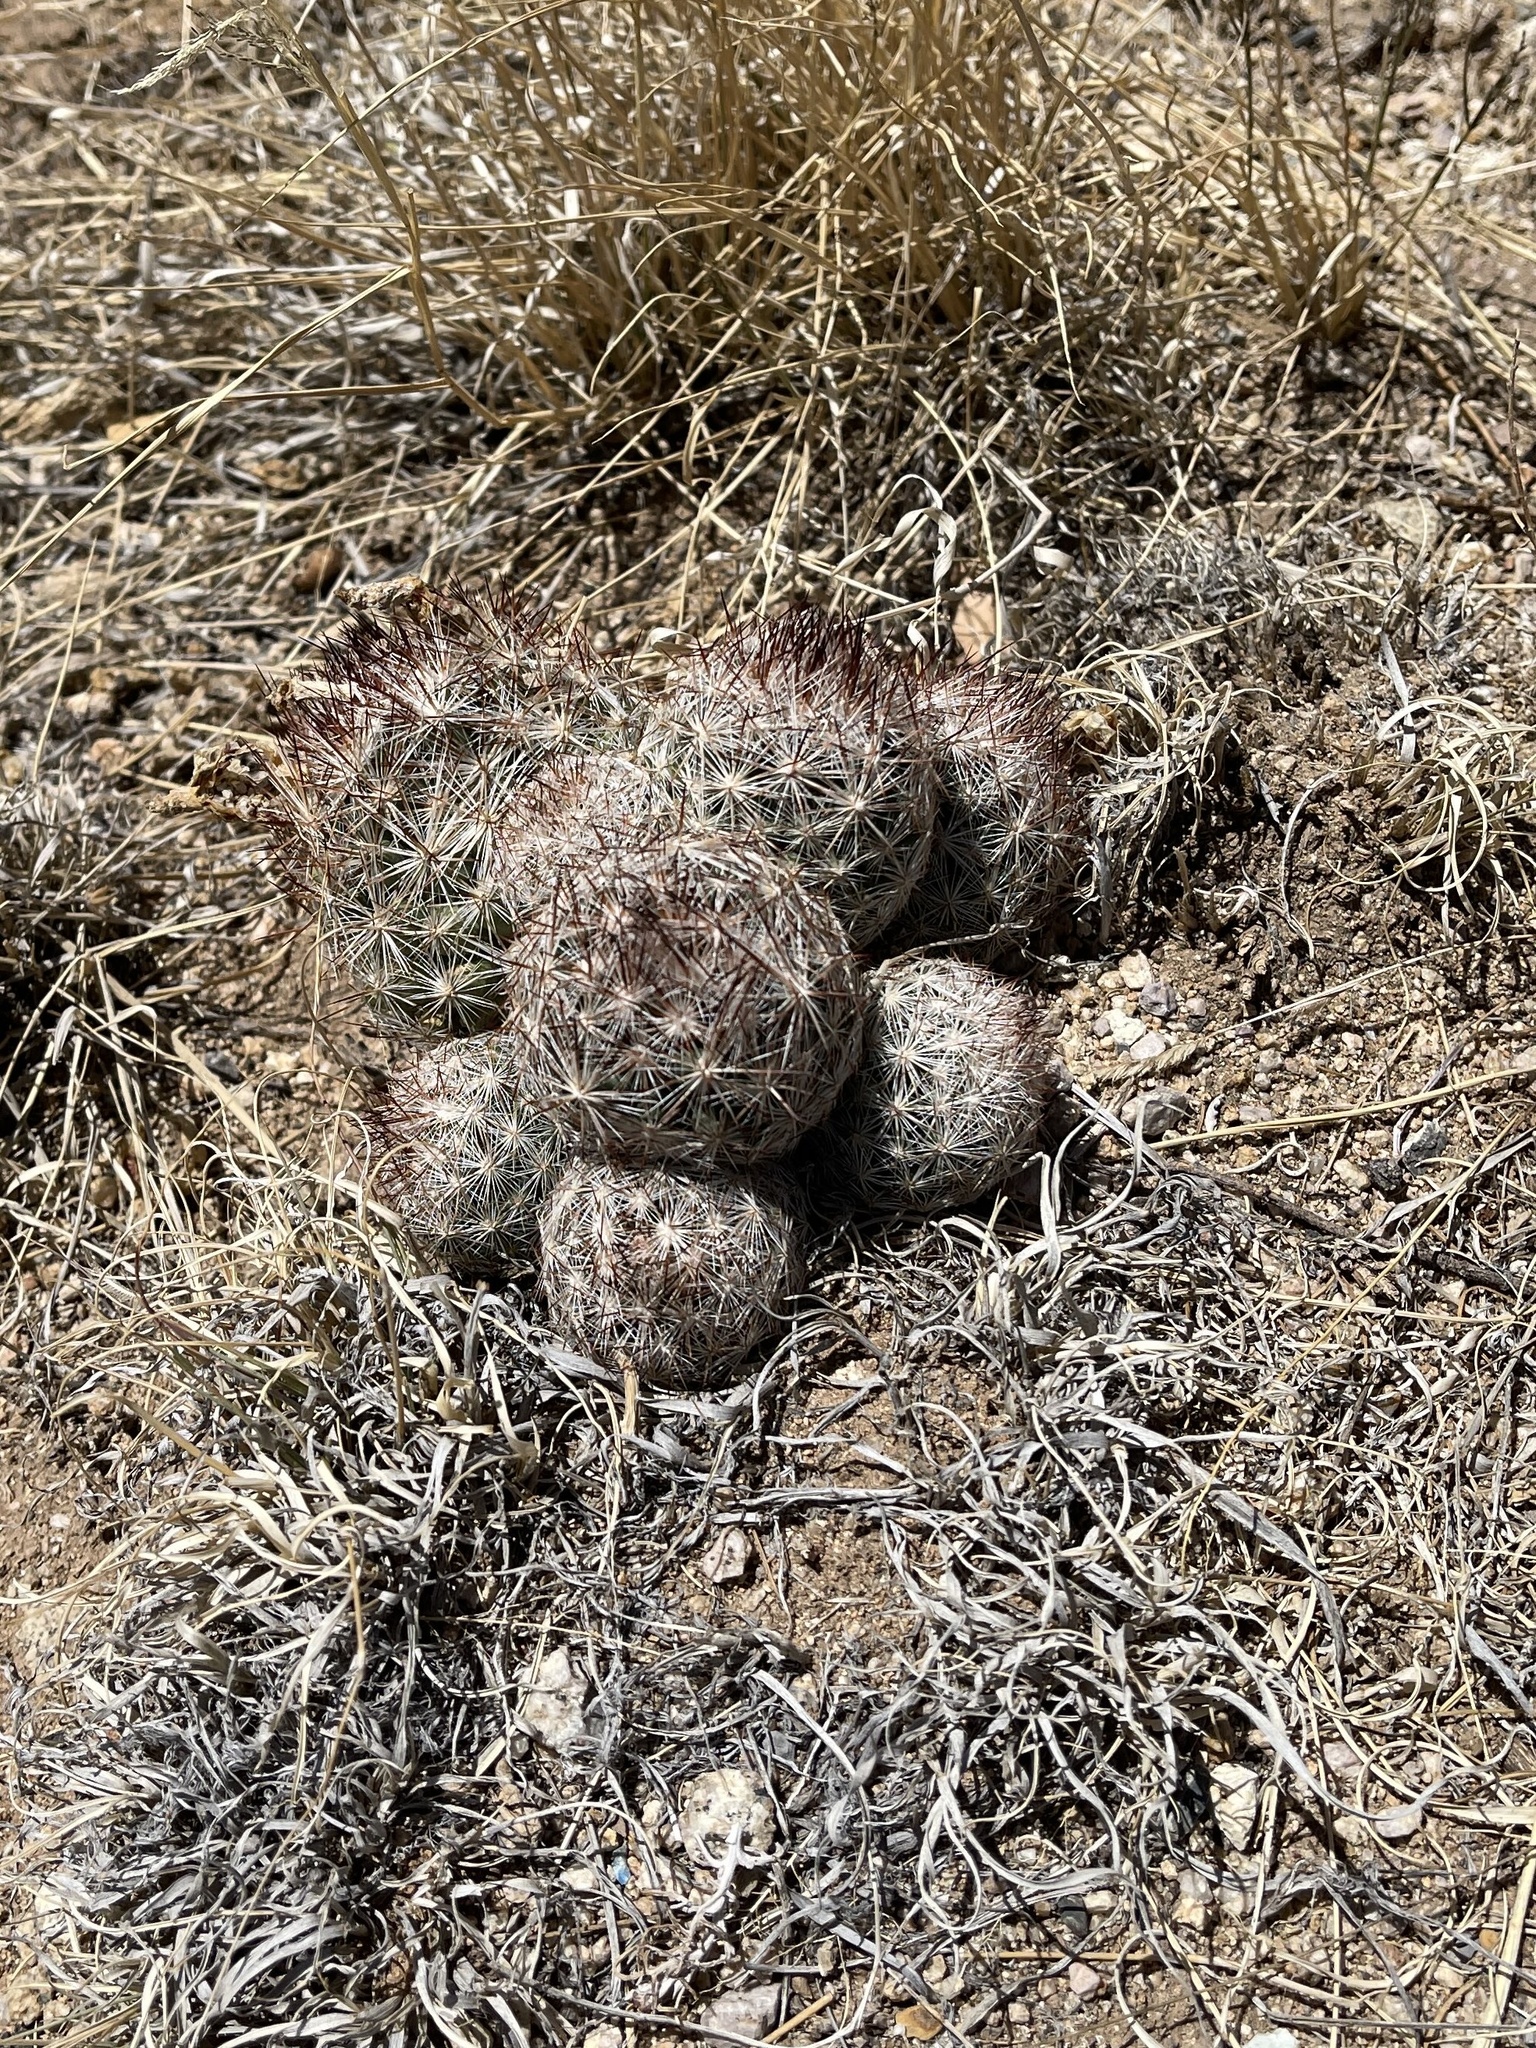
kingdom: Plantae
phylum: Tracheophyta
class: Magnoliopsida
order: Caryophyllales
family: Cactaceae
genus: Pelecyphora
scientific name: Pelecyphora vivipara
